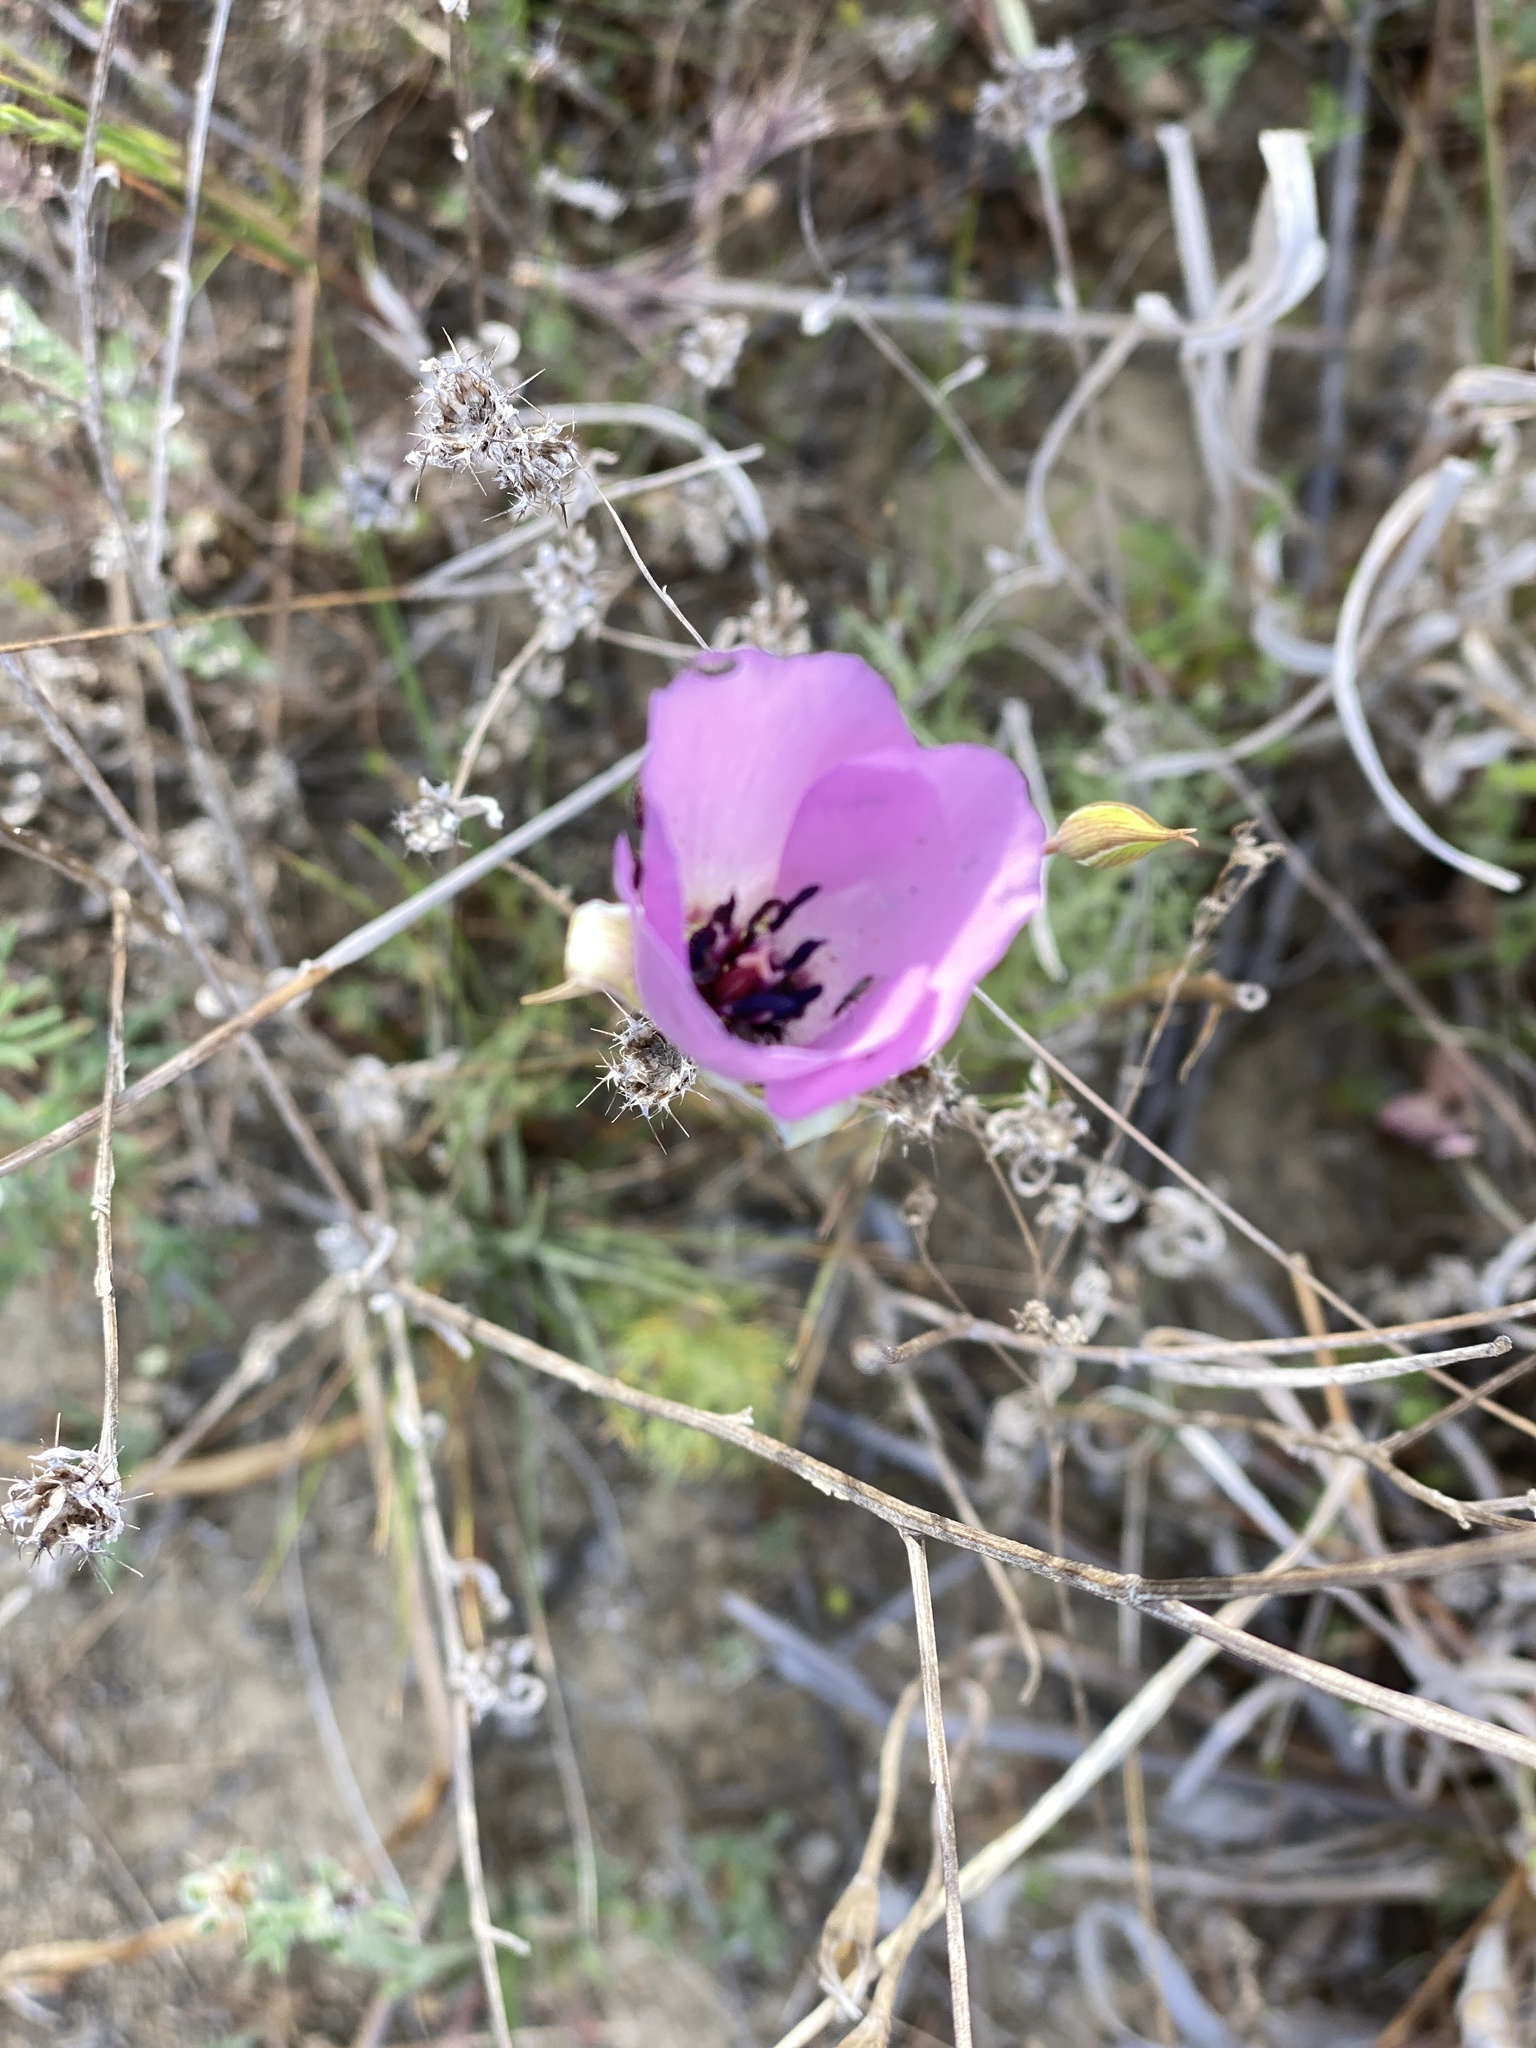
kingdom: Plantae
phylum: Tracheophyta
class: Liliopsida
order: Liliales
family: Liliaceae
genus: Calochortus
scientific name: Calochortus splendens
